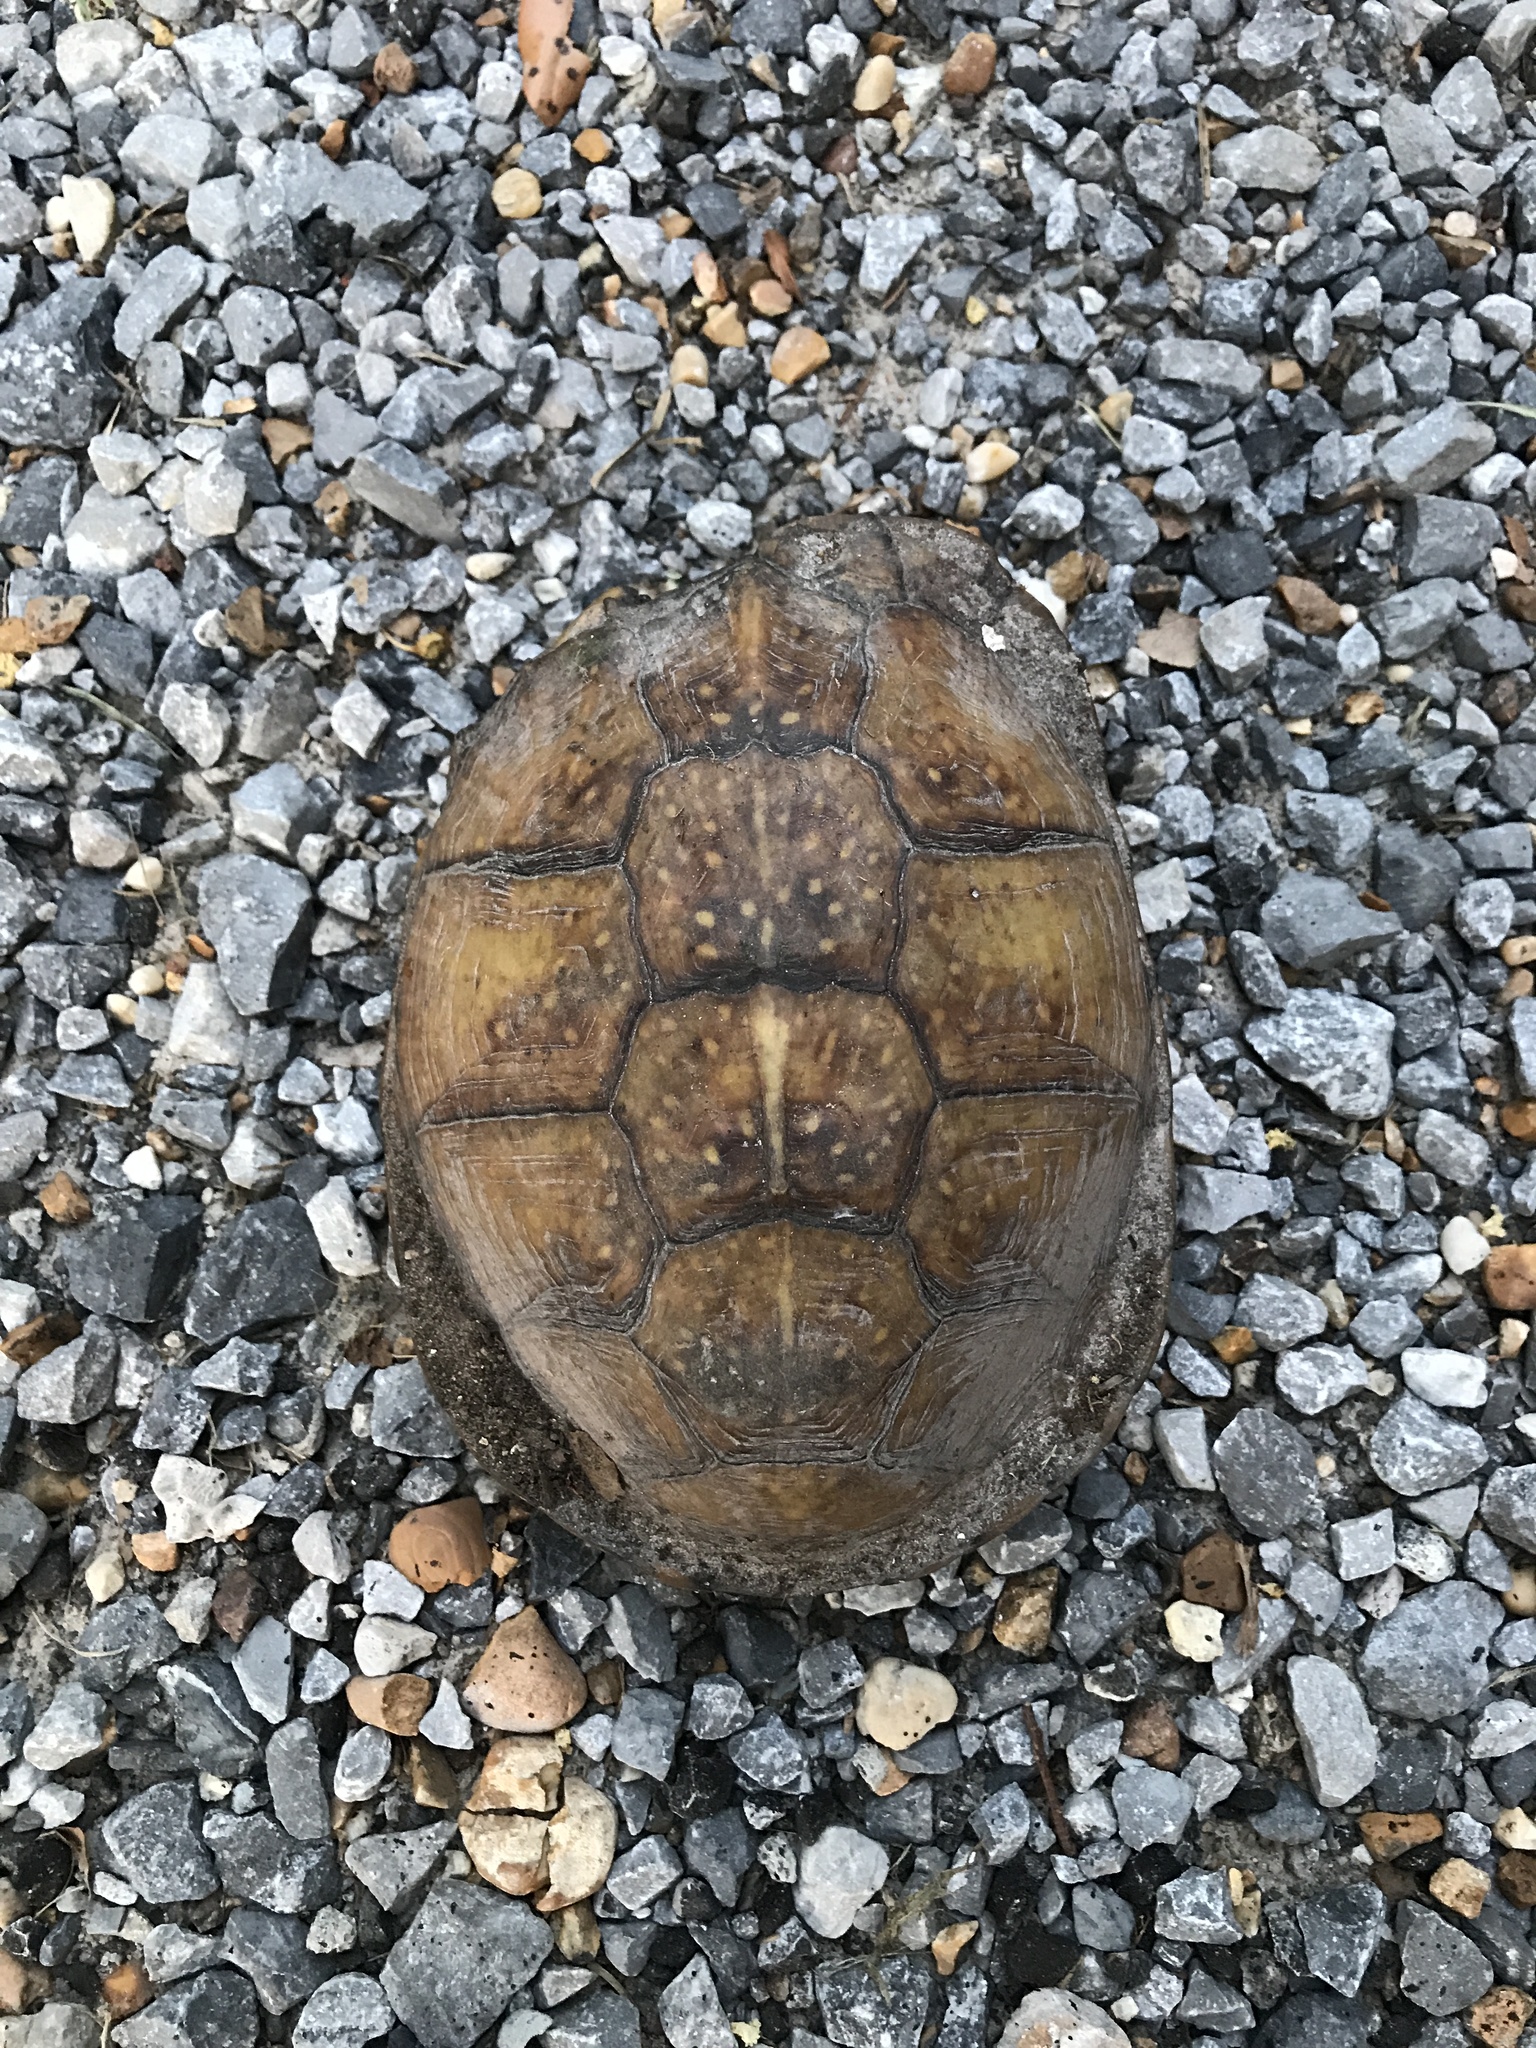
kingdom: Animalia
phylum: Chordata
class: Testudines
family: Emydidae
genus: Terrapene
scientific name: Terrapene carolina
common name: Common box turtle
